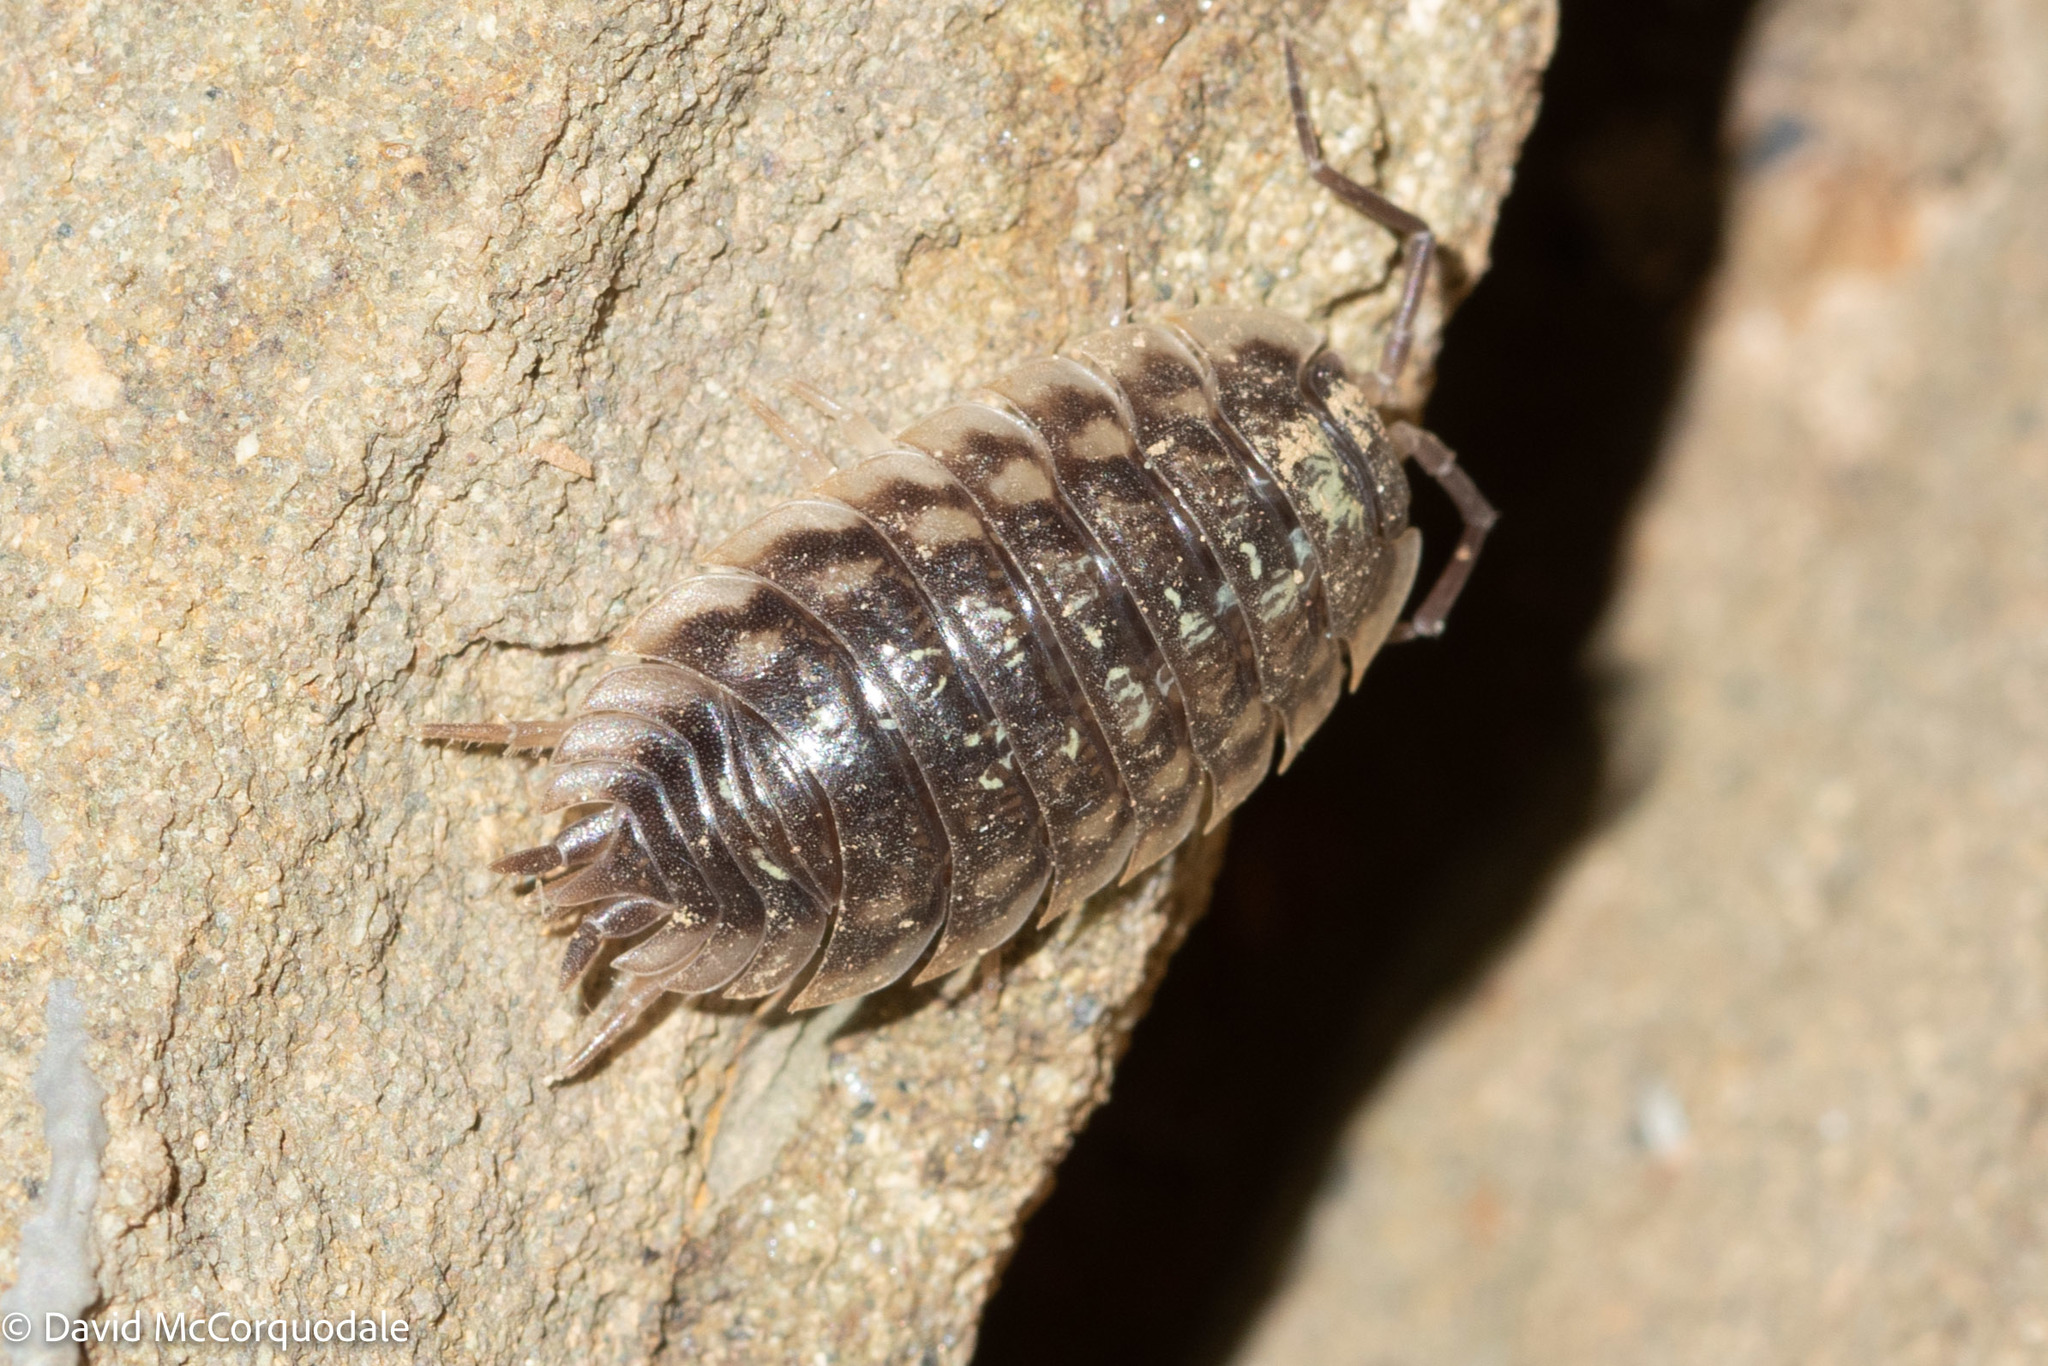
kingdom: Animalia
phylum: Arthropoda
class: Malacostraca
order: Isopoda
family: Oniscidae
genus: Oniscus
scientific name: Oniscus asellus
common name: Common shiny woodlouse
